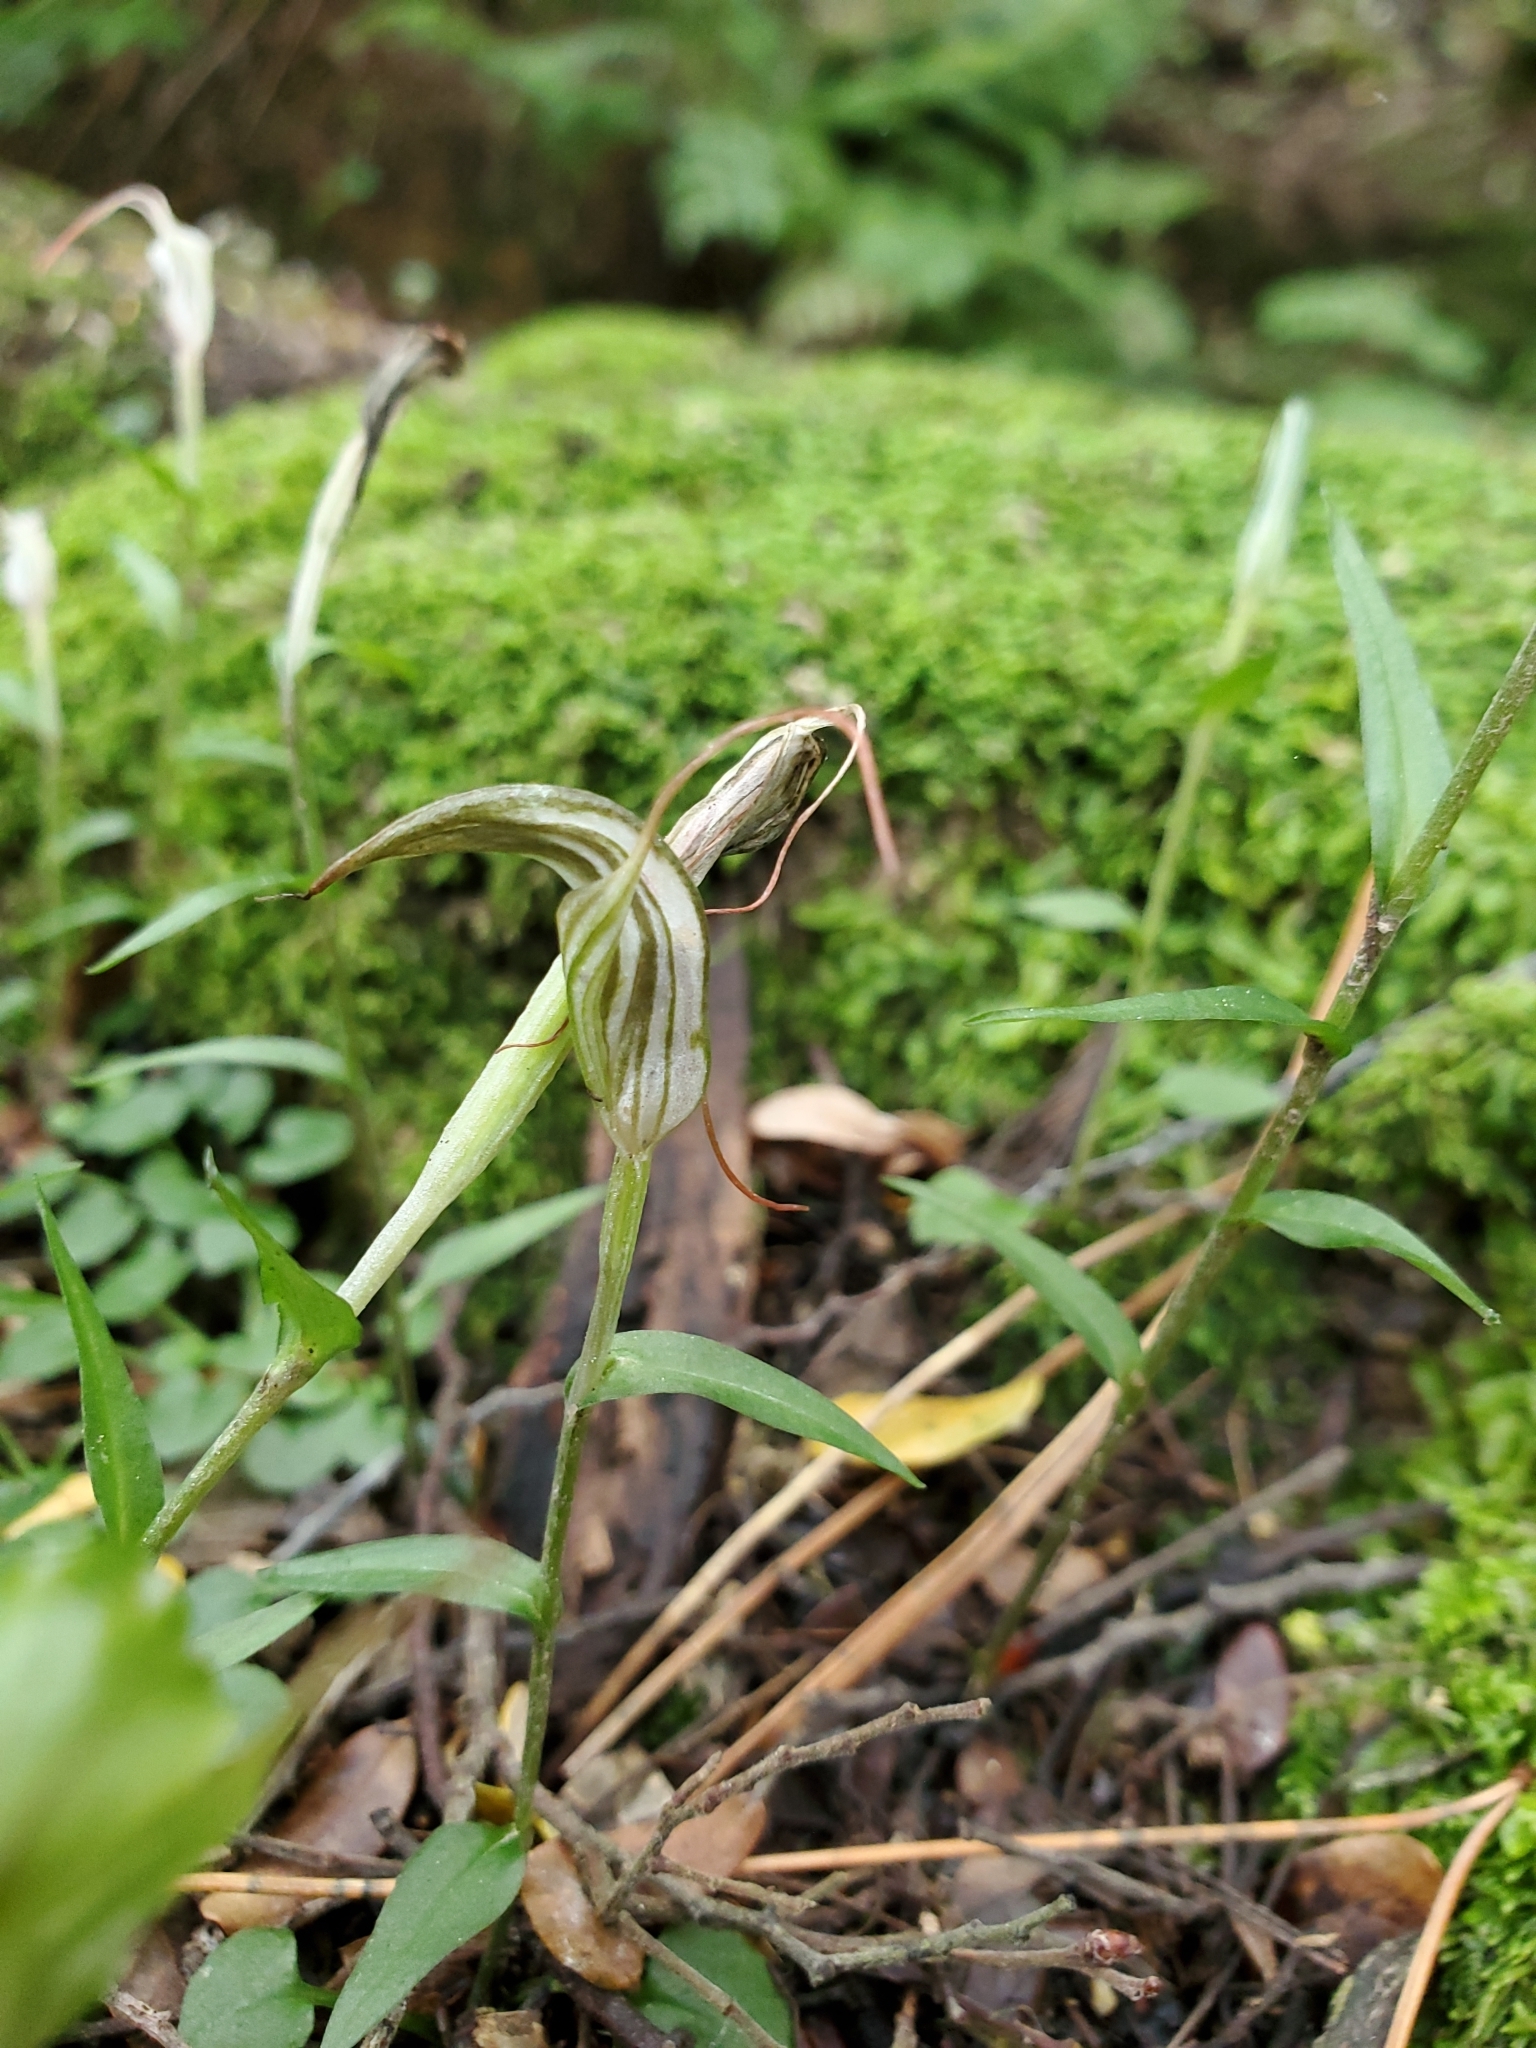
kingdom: Plantae
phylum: Tracheophyta
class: Liliopsida
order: Asparagales
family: Orchidaceae
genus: Pterostylis
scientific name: Pterostylis alobula
